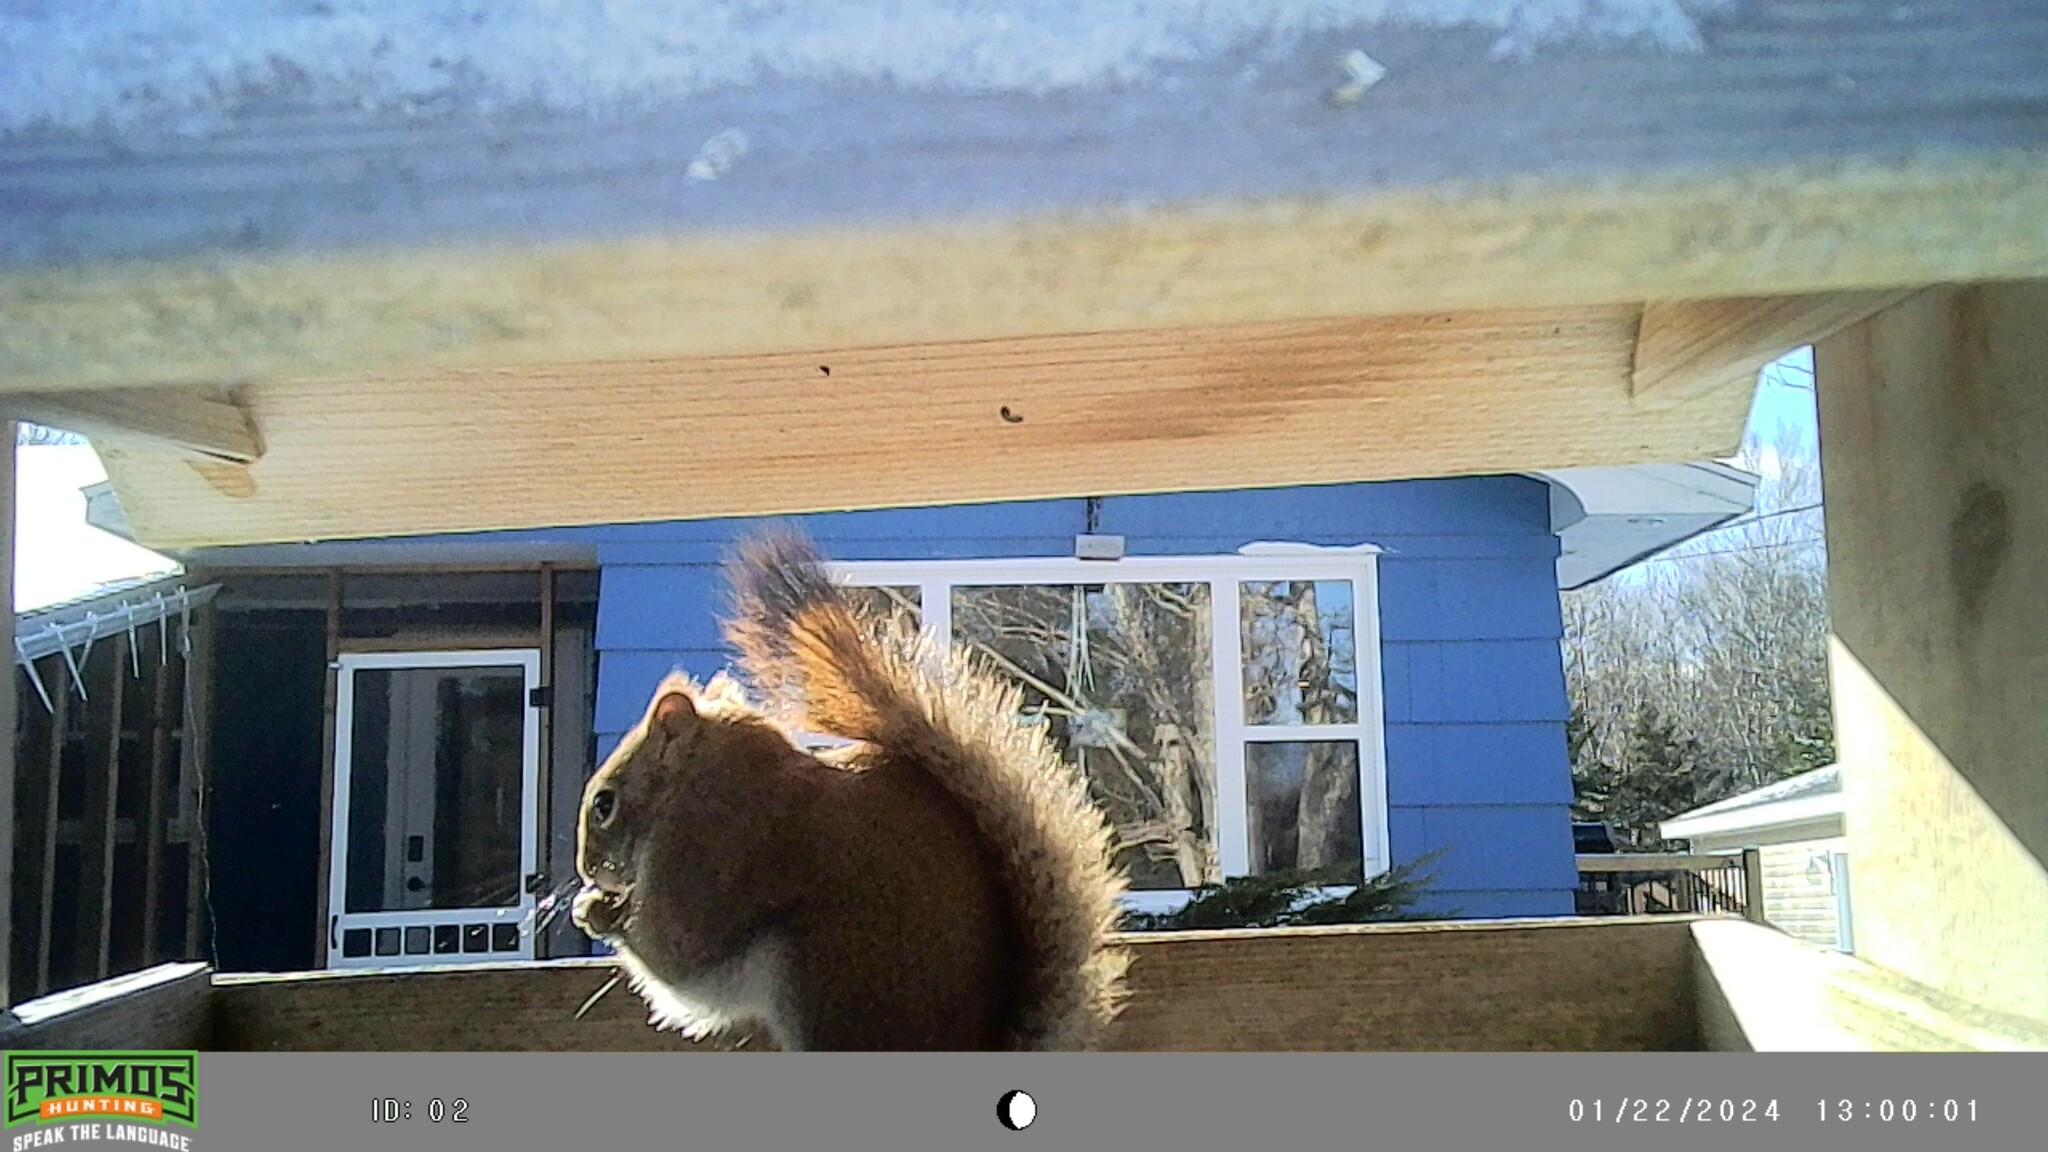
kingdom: Animalia
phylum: Chordata
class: Mammalia
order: Rodentia
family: Sciuridae
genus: Tamiasciurus
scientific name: Tamiasciurus hudsonicus
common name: Red squirrel
